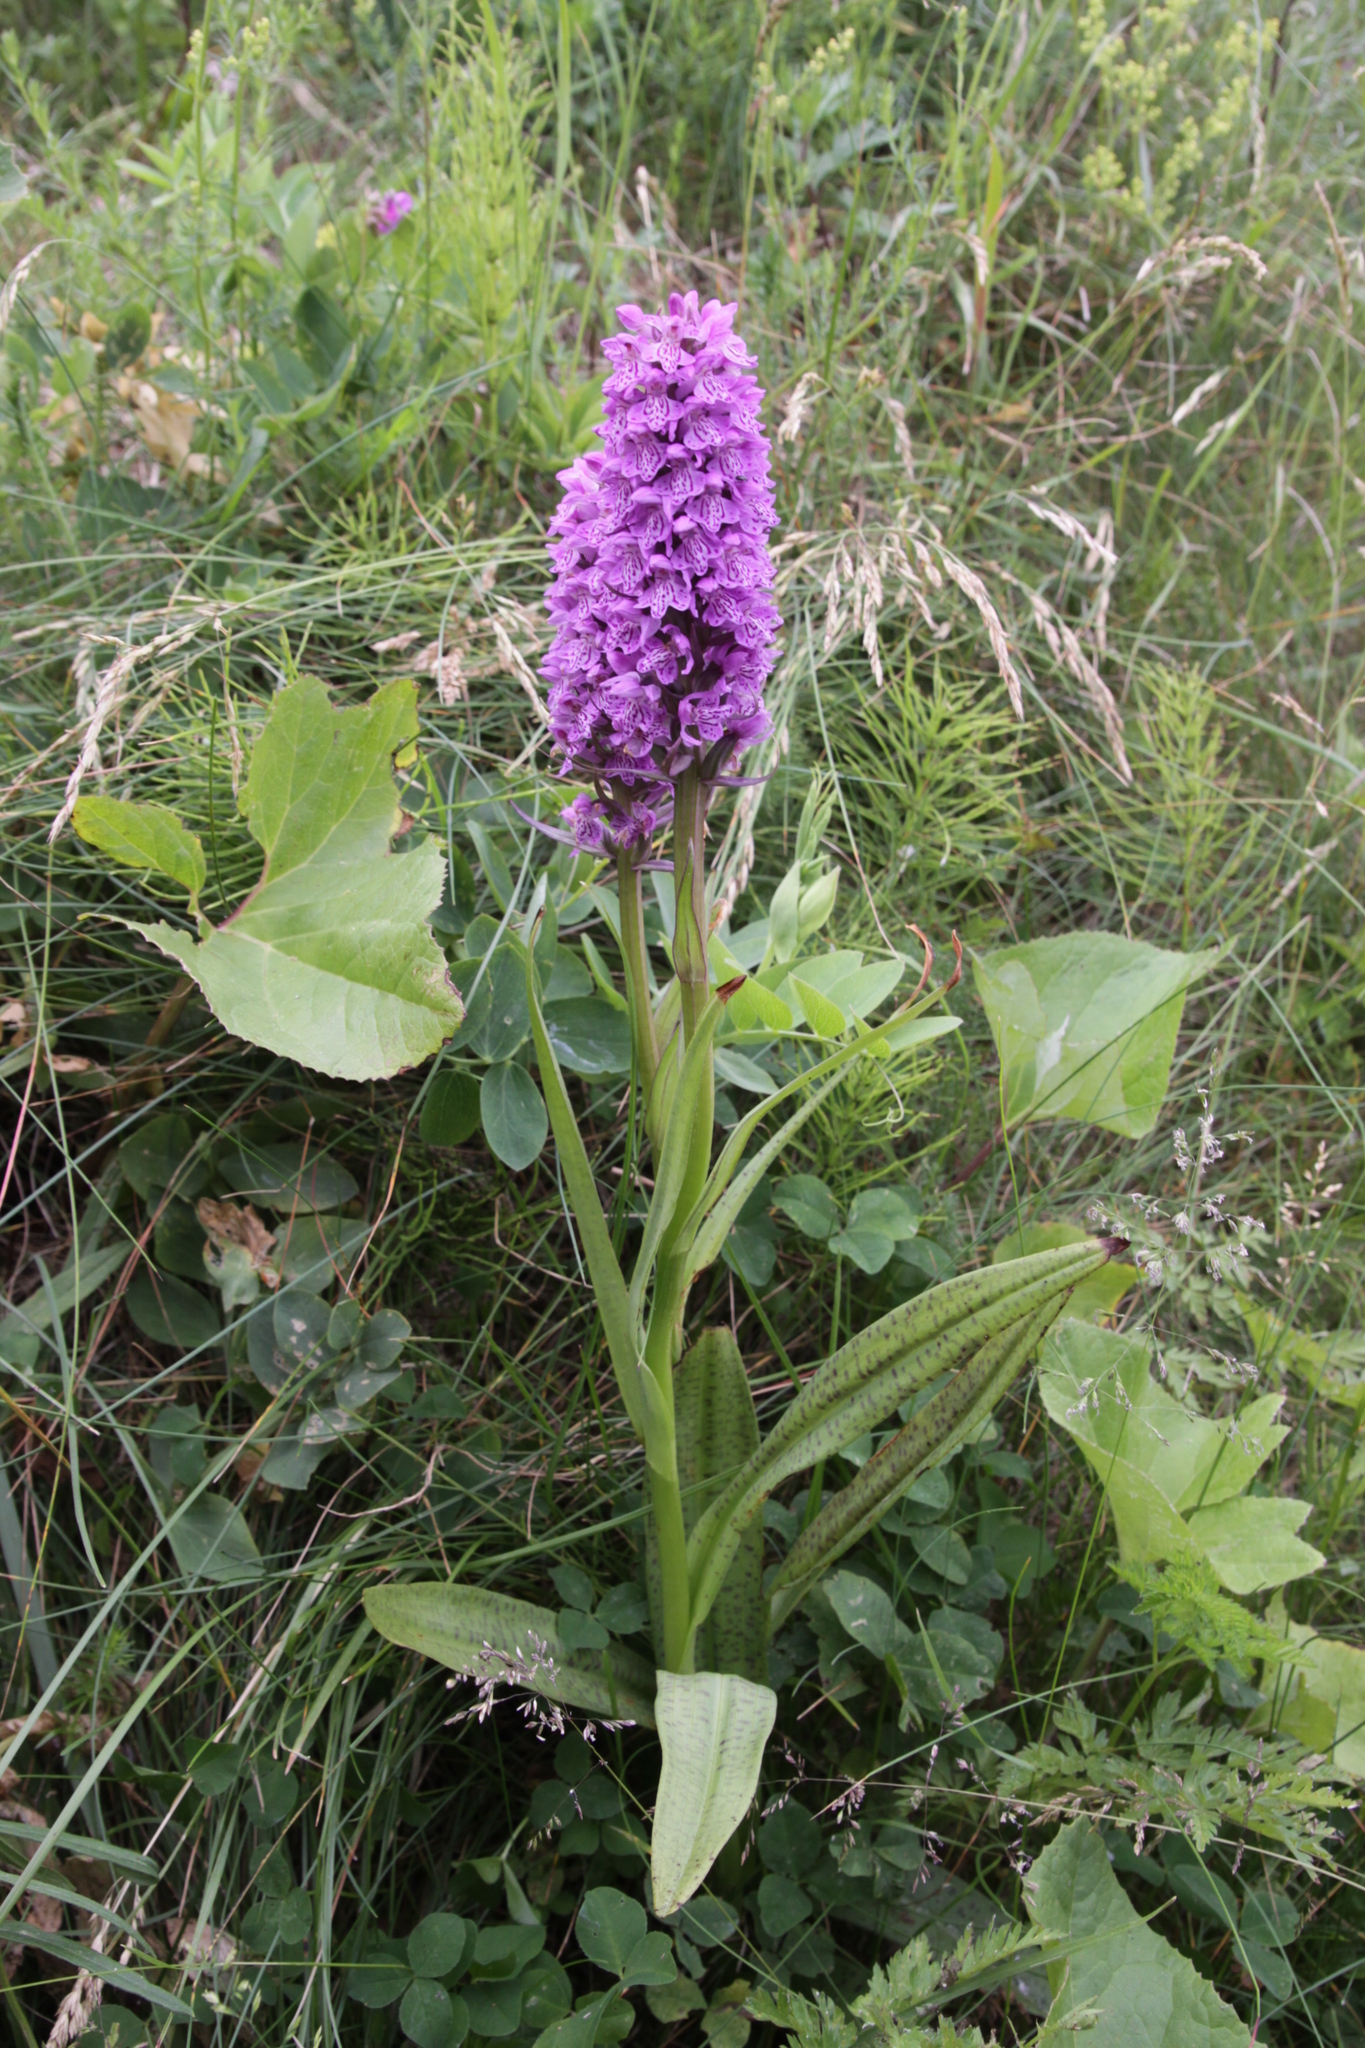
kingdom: Plantae
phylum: Tracheophyta
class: Liliopsida
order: Asparagales
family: Orchidaceae
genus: Dactylorhiza
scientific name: Dactylorhiza majalis
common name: Marsh orchid
